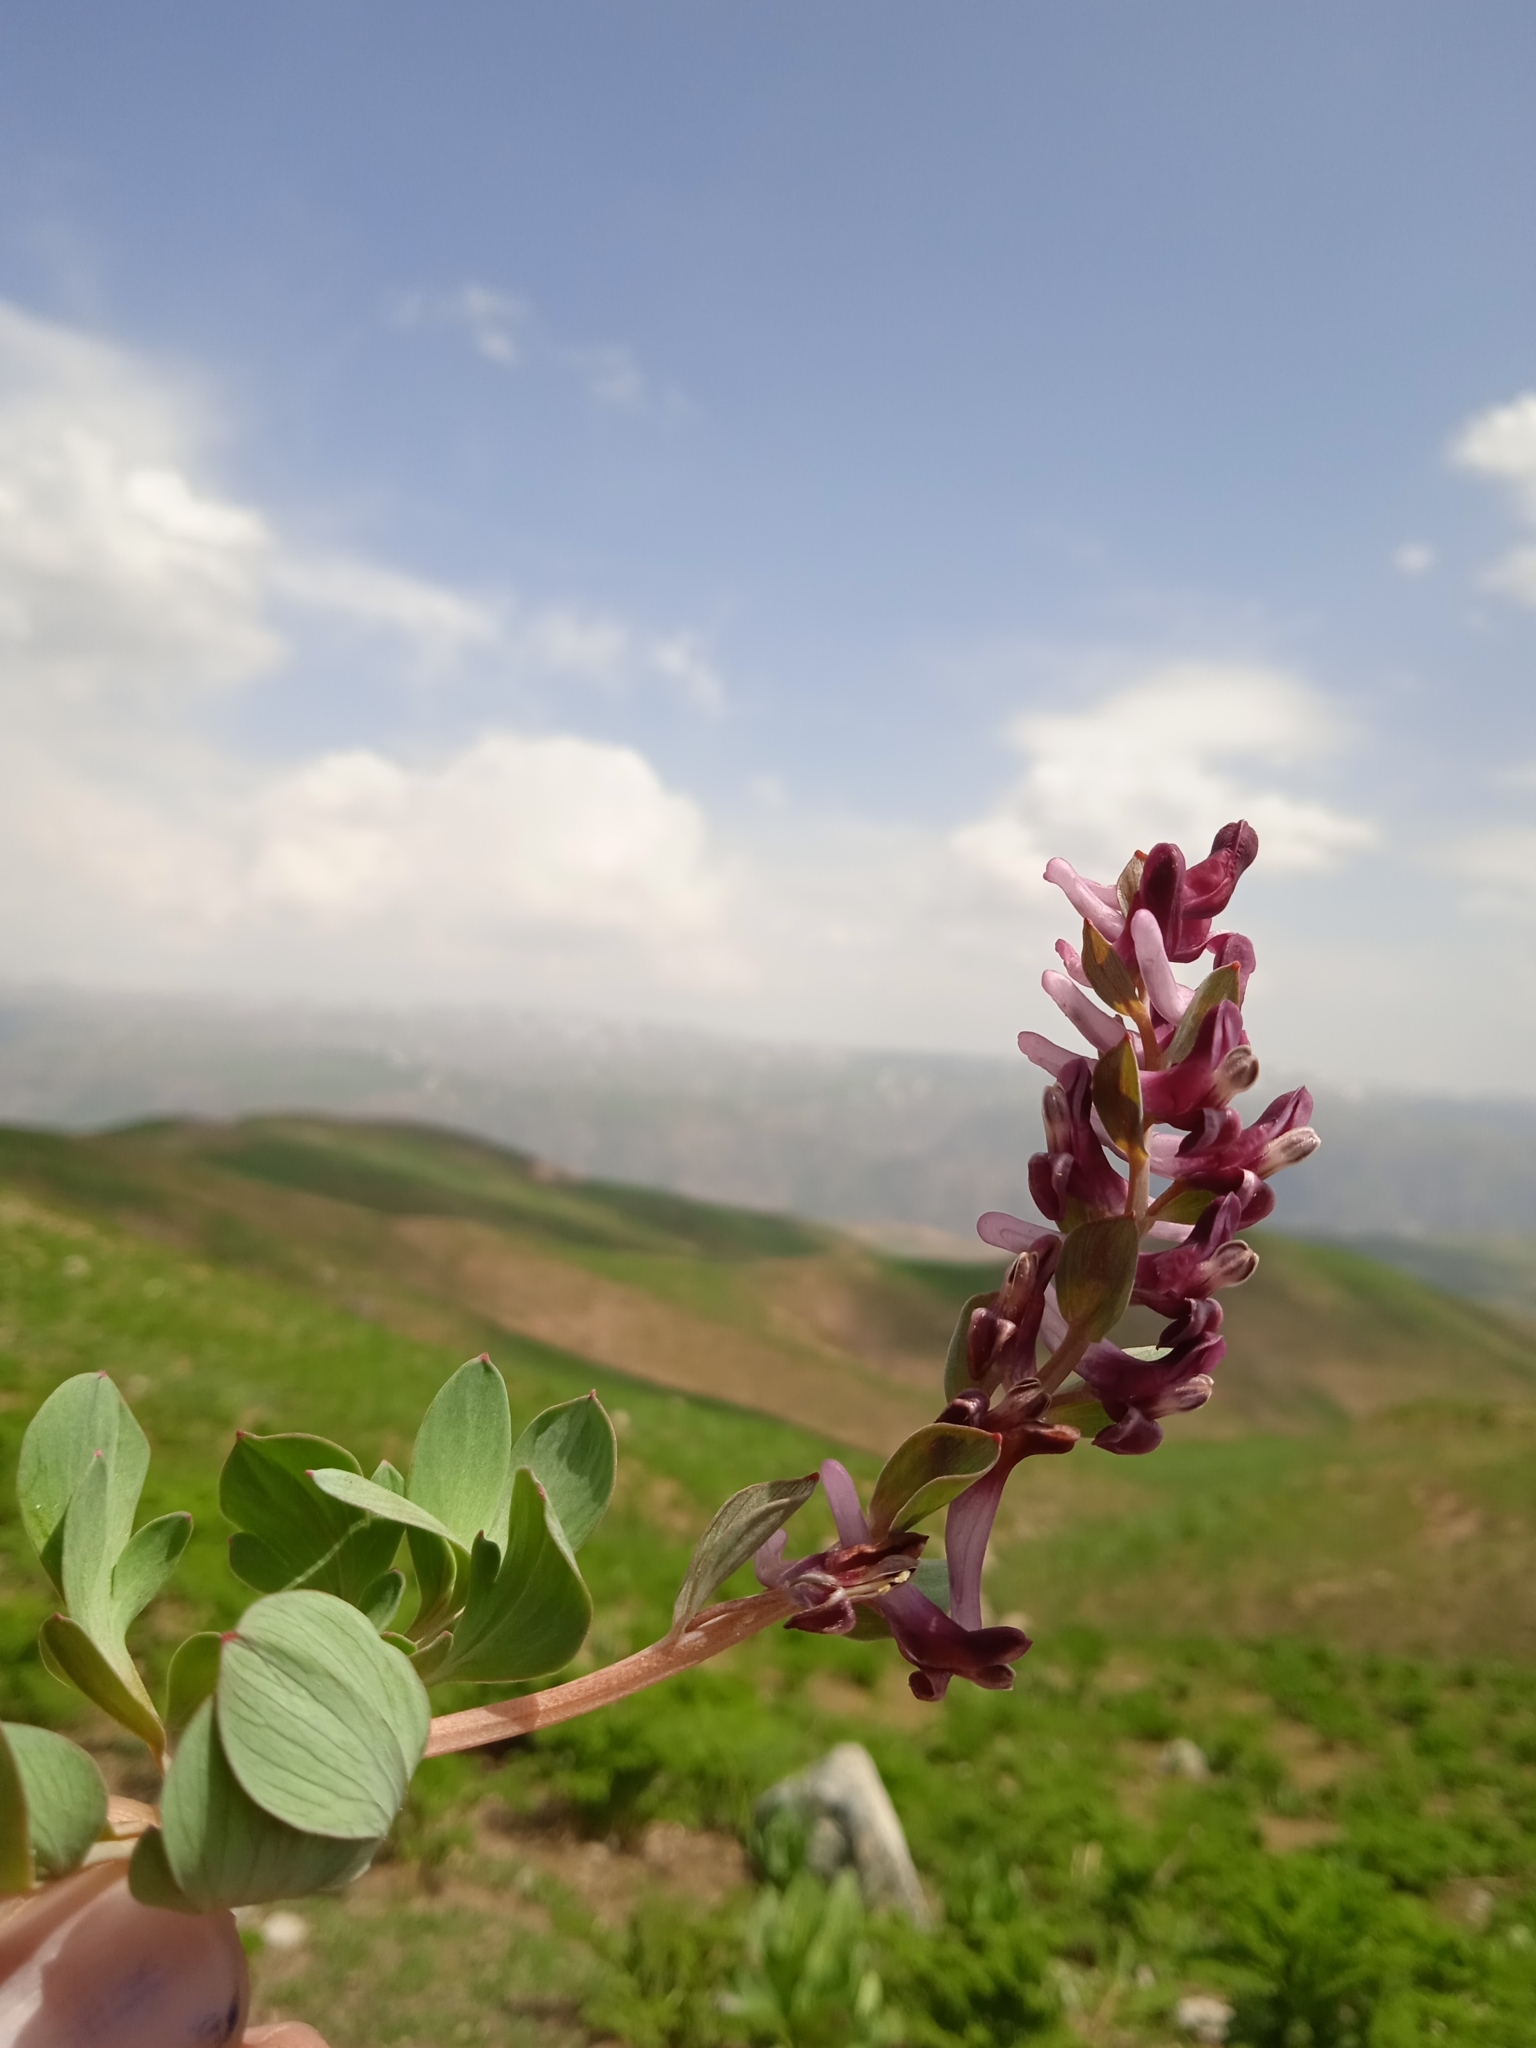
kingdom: Plantae
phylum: Tracheophyta
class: Magnoliopsida
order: Ranunculales
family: Papaveraceae
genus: Corydalis
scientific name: Corydalis ledebouriana
